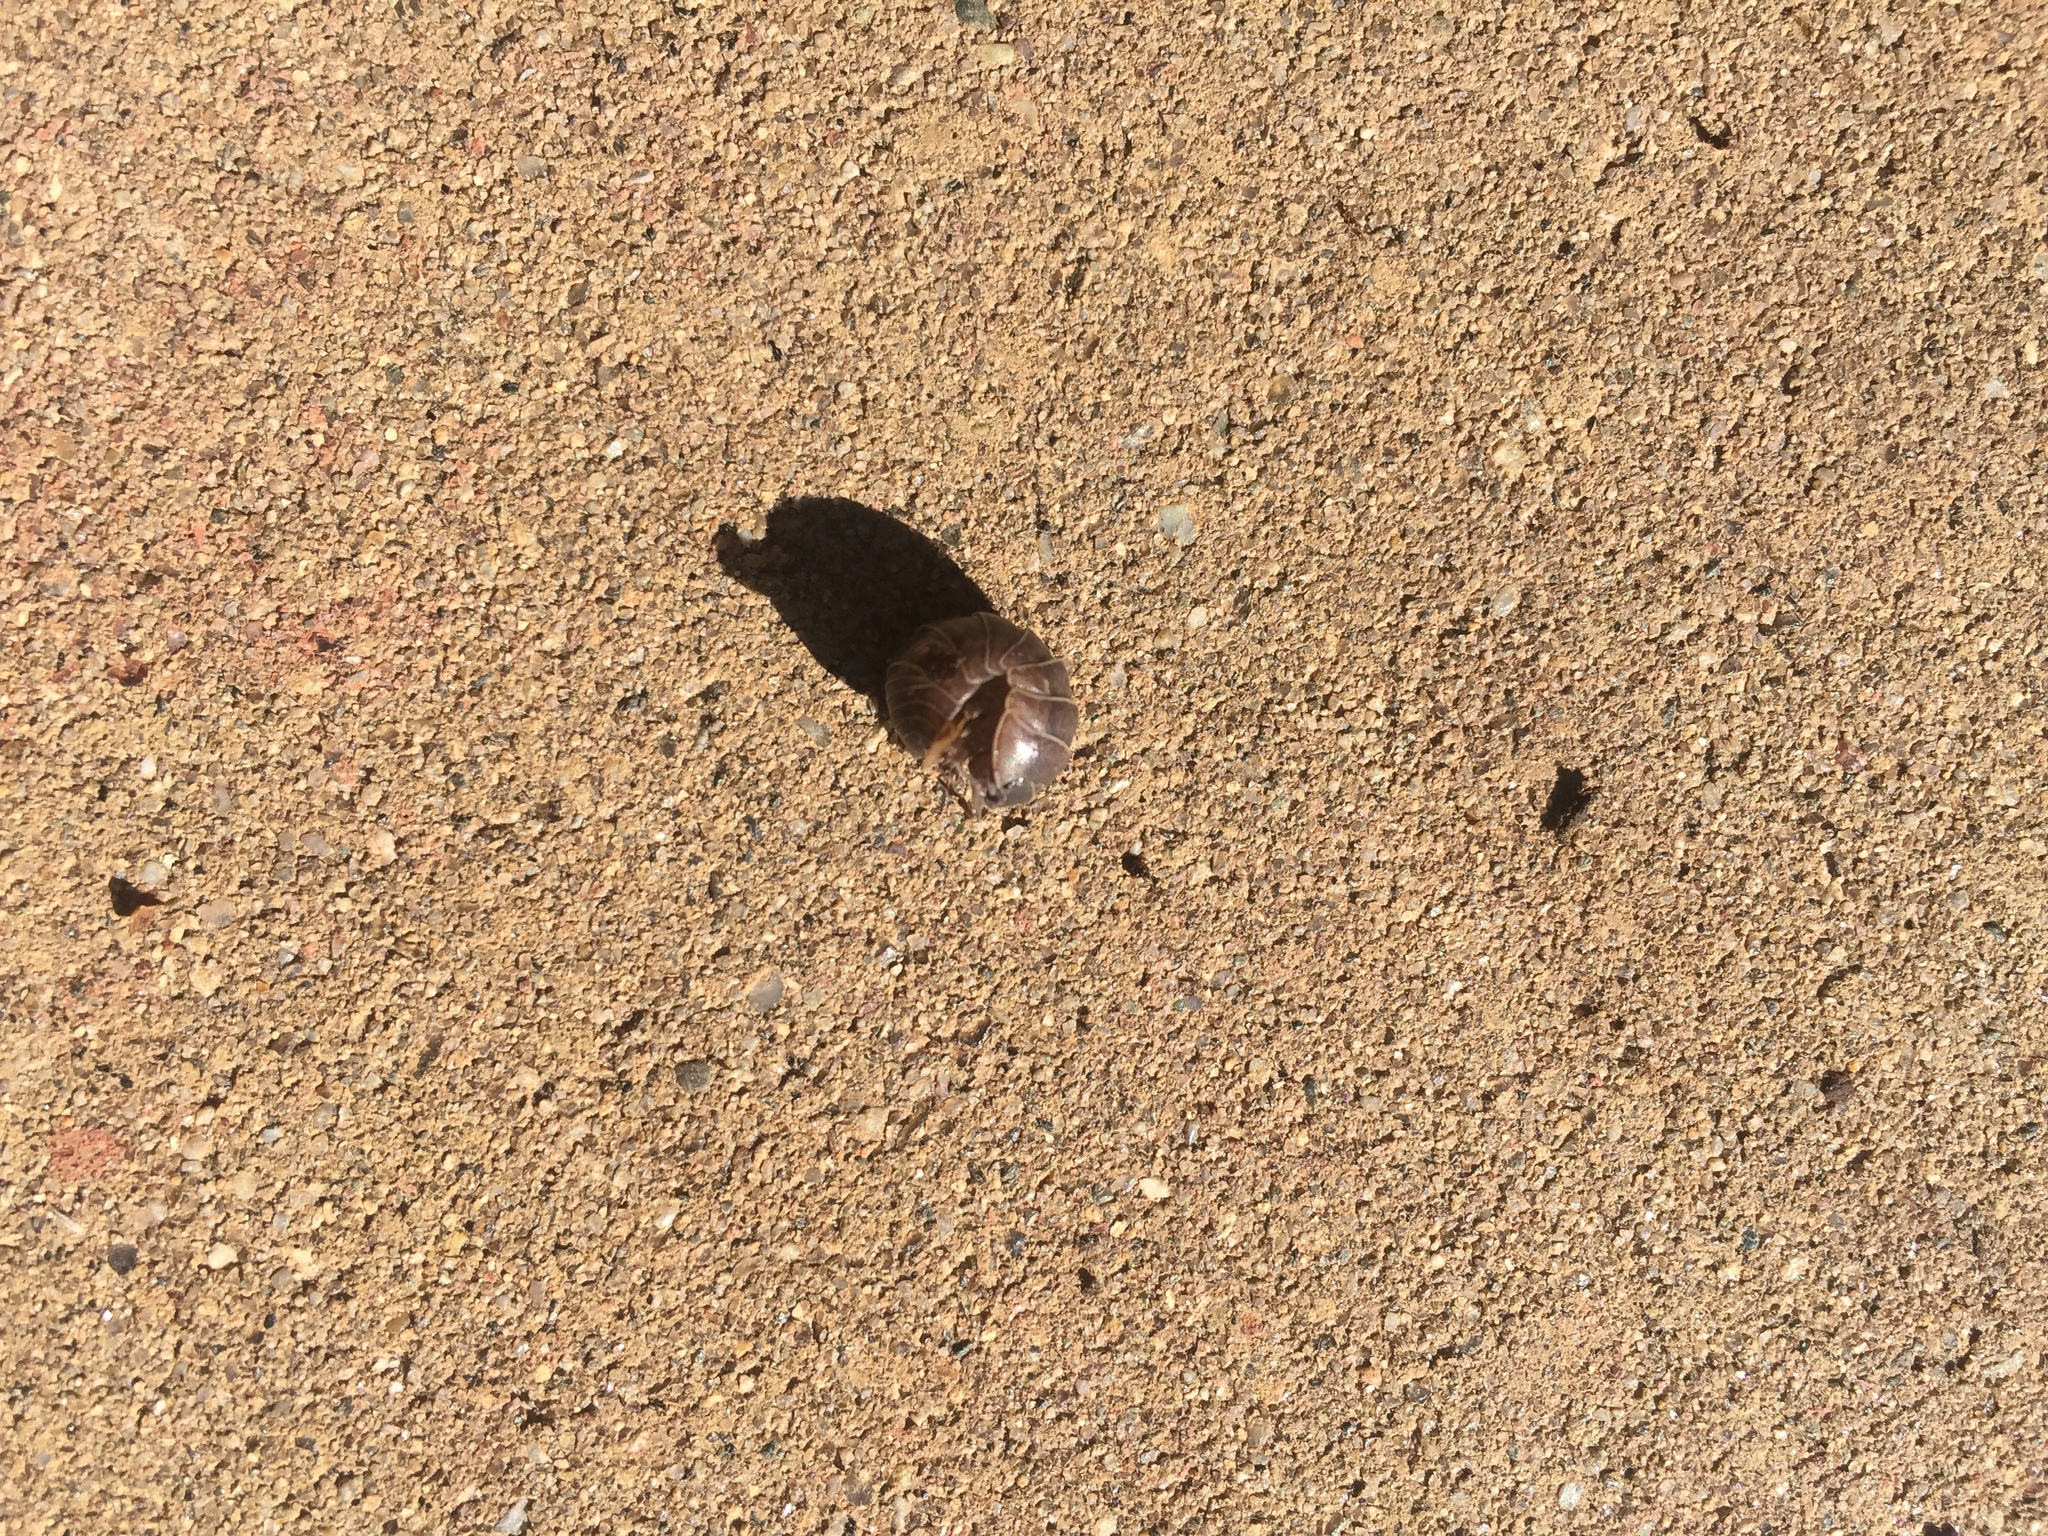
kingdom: Animalia
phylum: Arthropoda
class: Malacostraca
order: Isopoda
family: Armadillidiidae
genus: Armadillidium
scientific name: Armadillidium vulgare
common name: Common pill woodlouse
